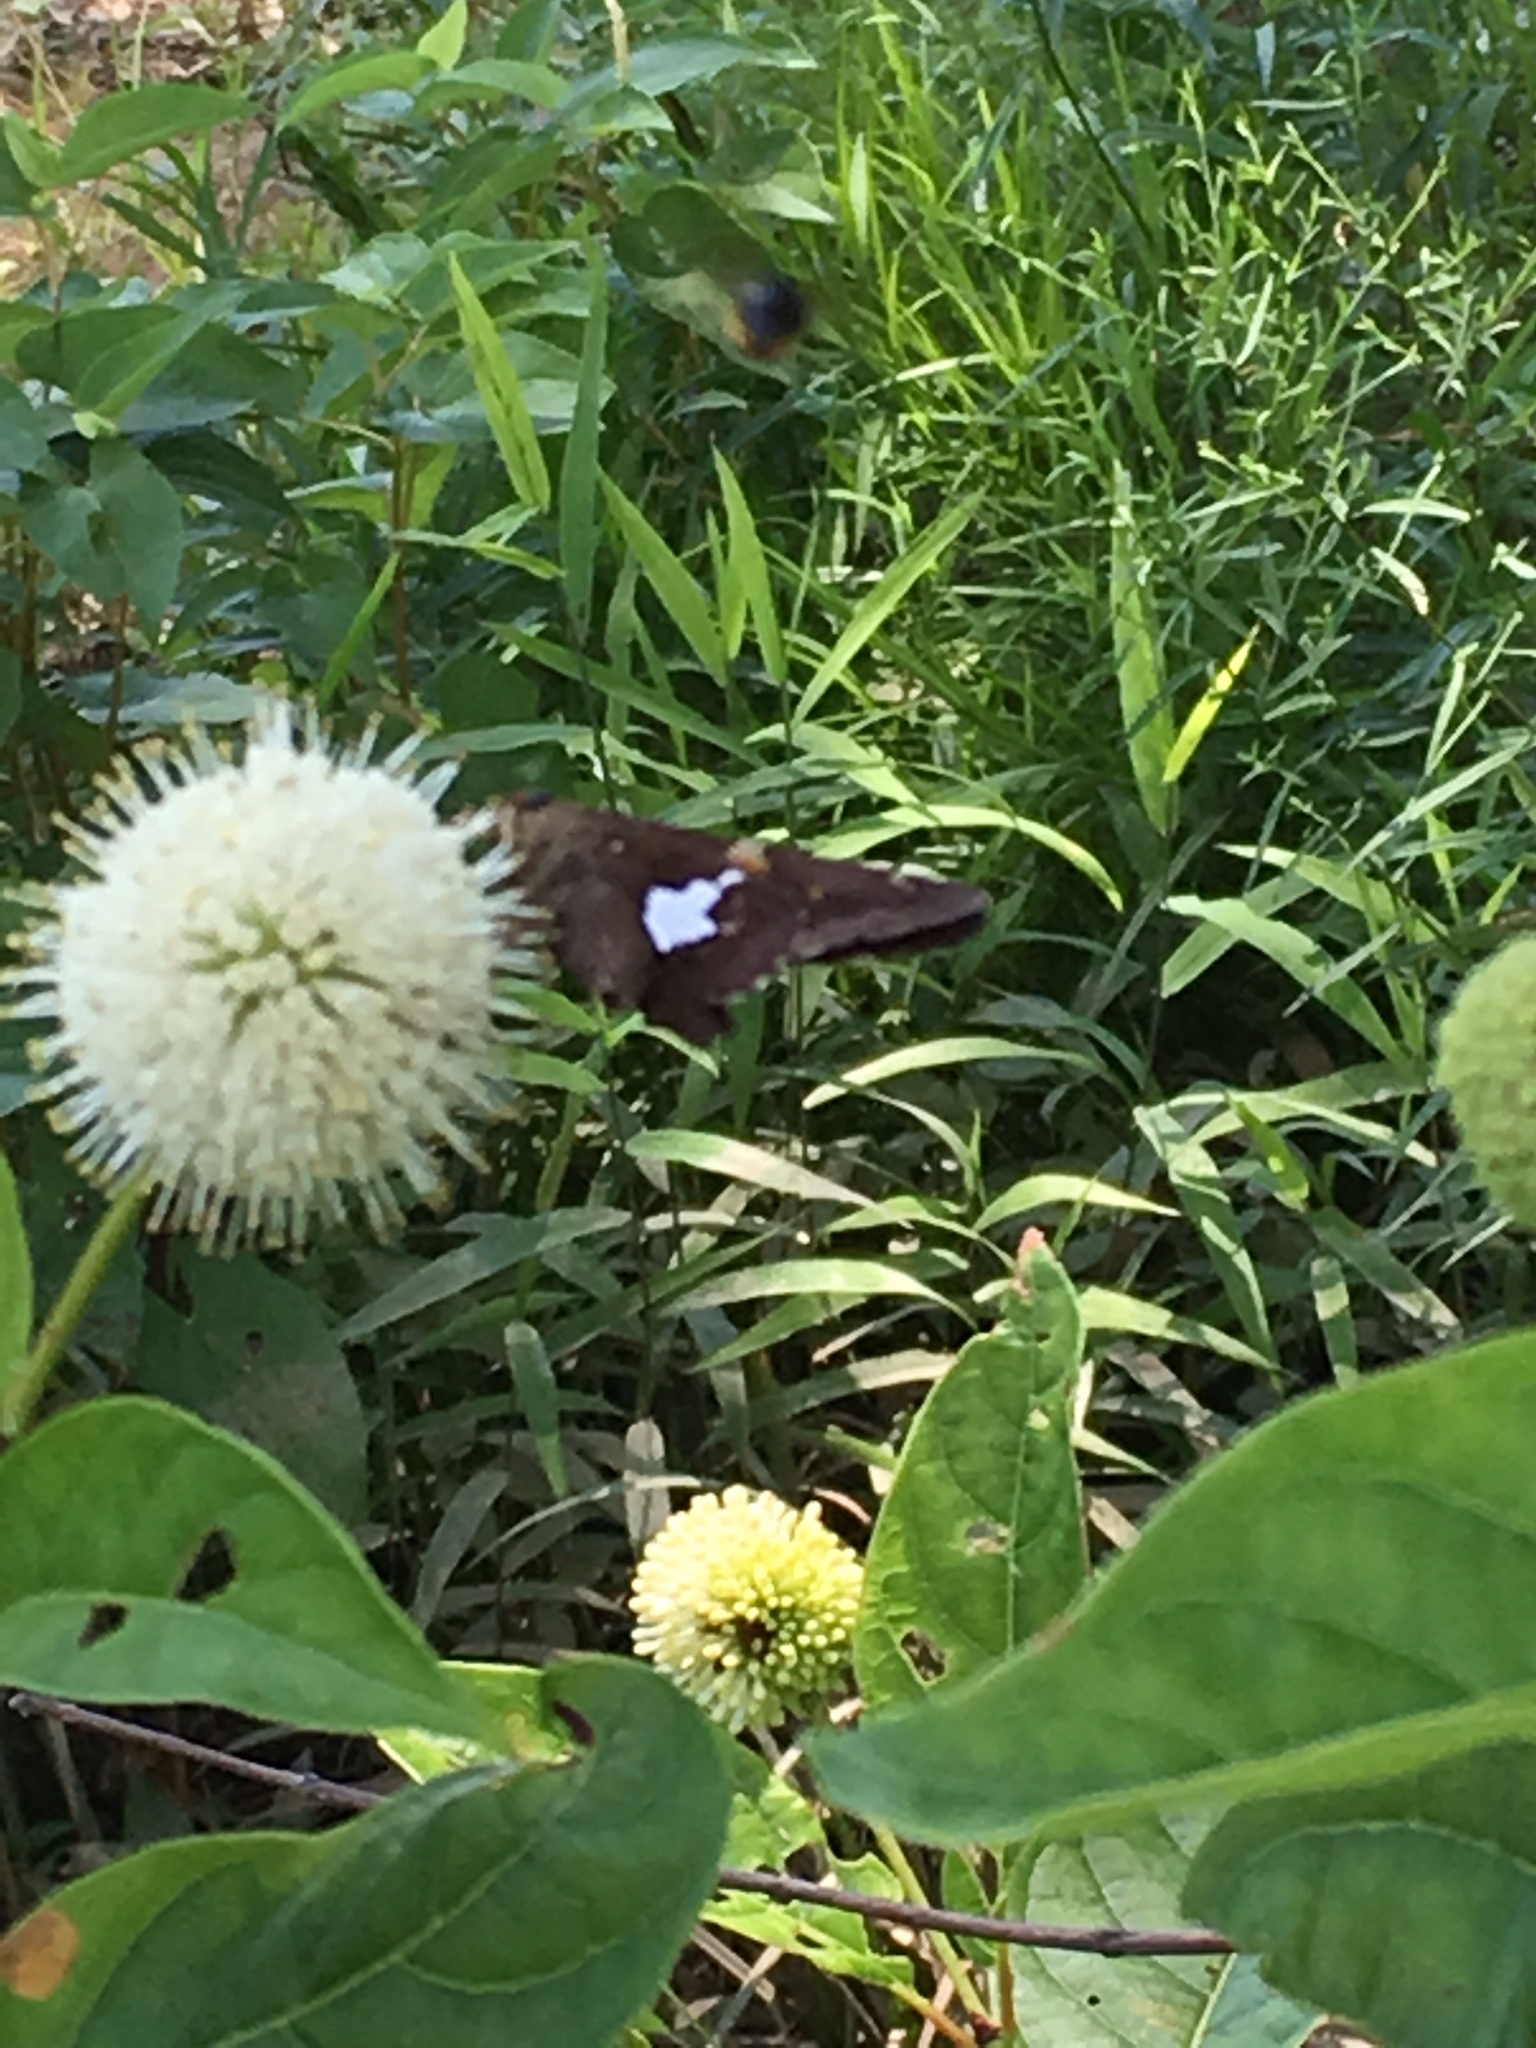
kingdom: Animalia
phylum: Arthropoda
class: Insecta
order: Lepidoptera
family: Hesperiidae
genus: Epargyreus
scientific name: Epargyreus clarus
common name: Silver-spotted skipper
